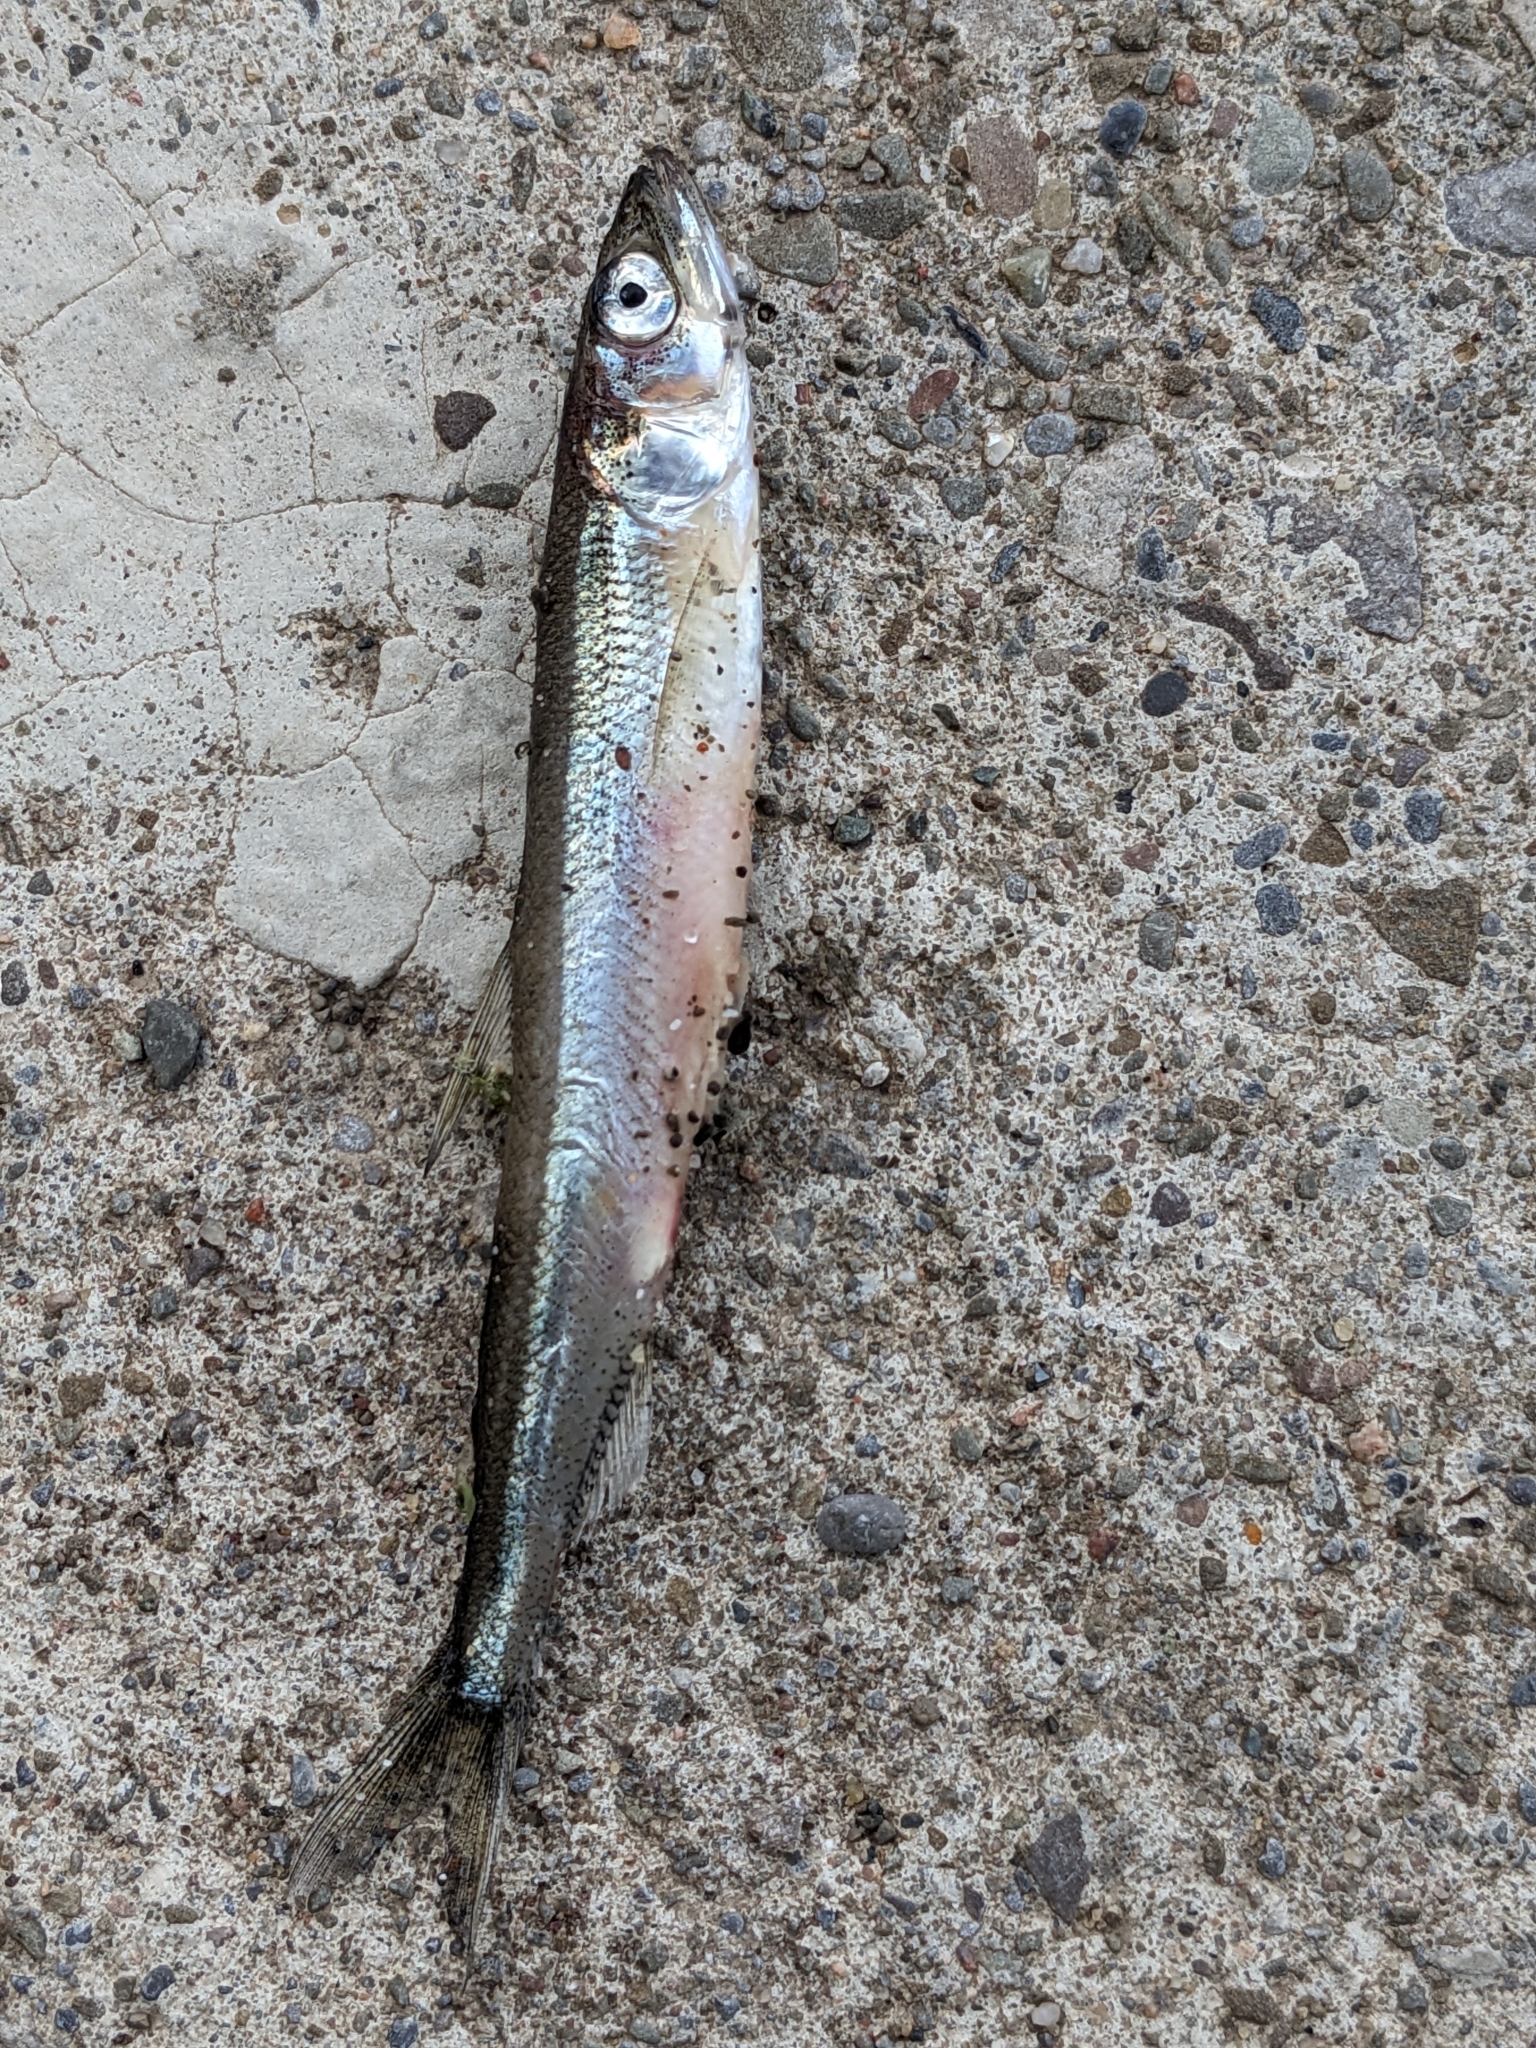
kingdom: Animalia
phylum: Chordata
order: Osmeriformes
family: Osmeridae
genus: Osmerus
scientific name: Osmerus mordax
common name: Rainbow smelt
